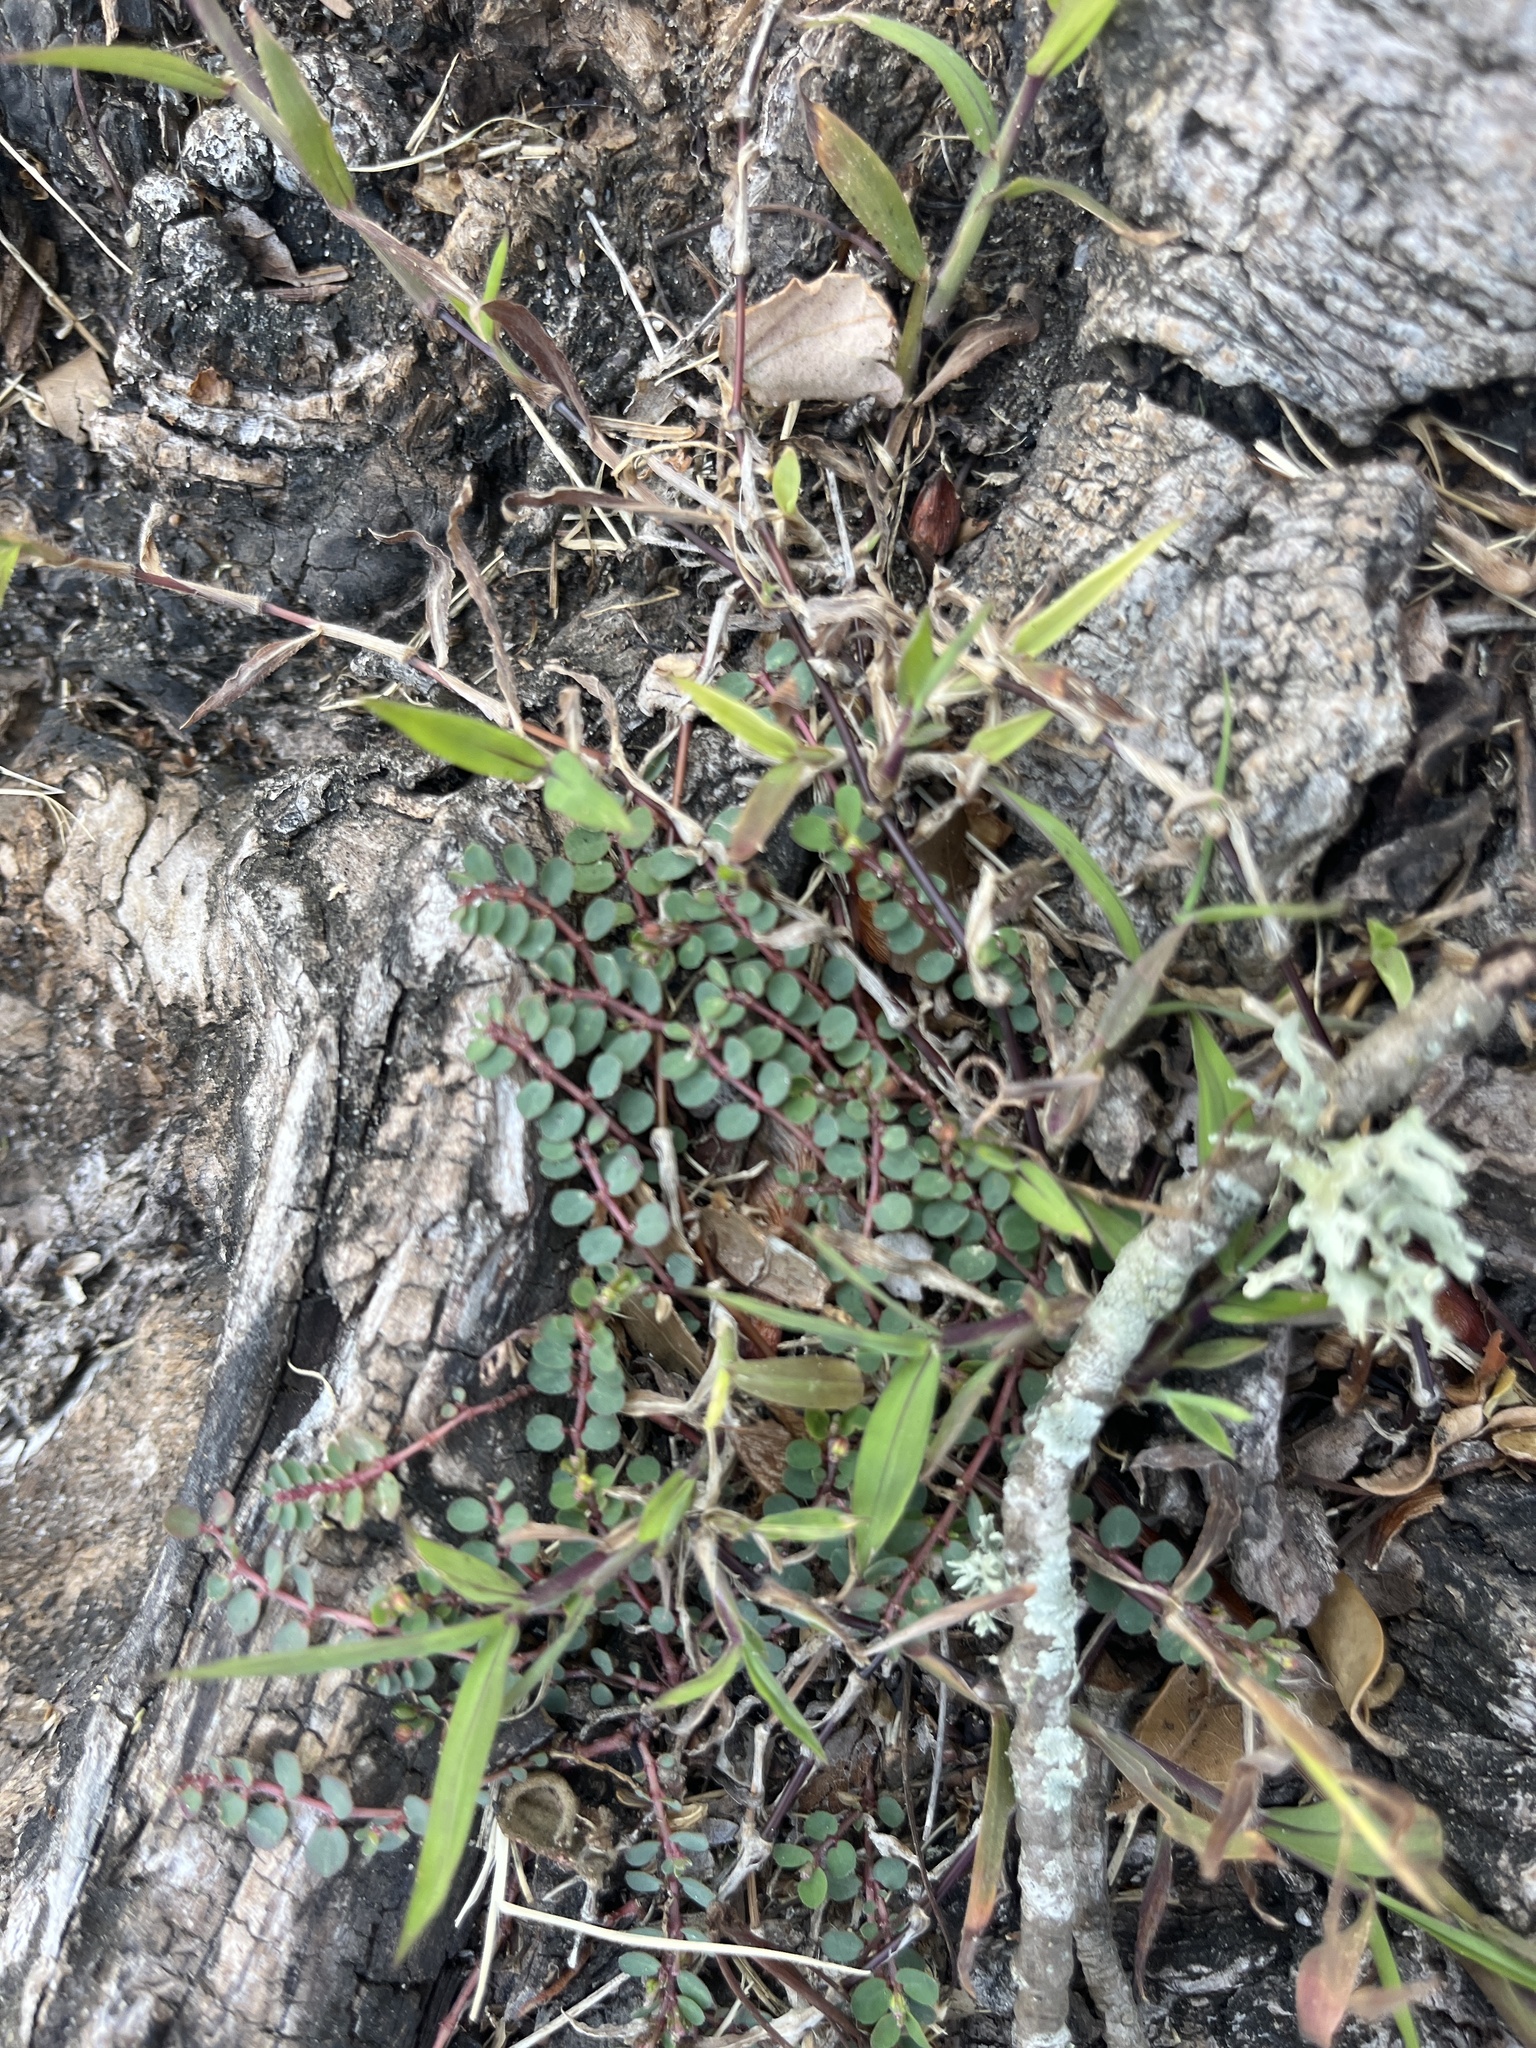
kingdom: Plantae
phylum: Tracheophyta
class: Magnoliopsida
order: Malpighiales
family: Euphorbiaceae
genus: Euphorbia
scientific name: Euphorbia prostrata
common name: Prostrate sandmat
